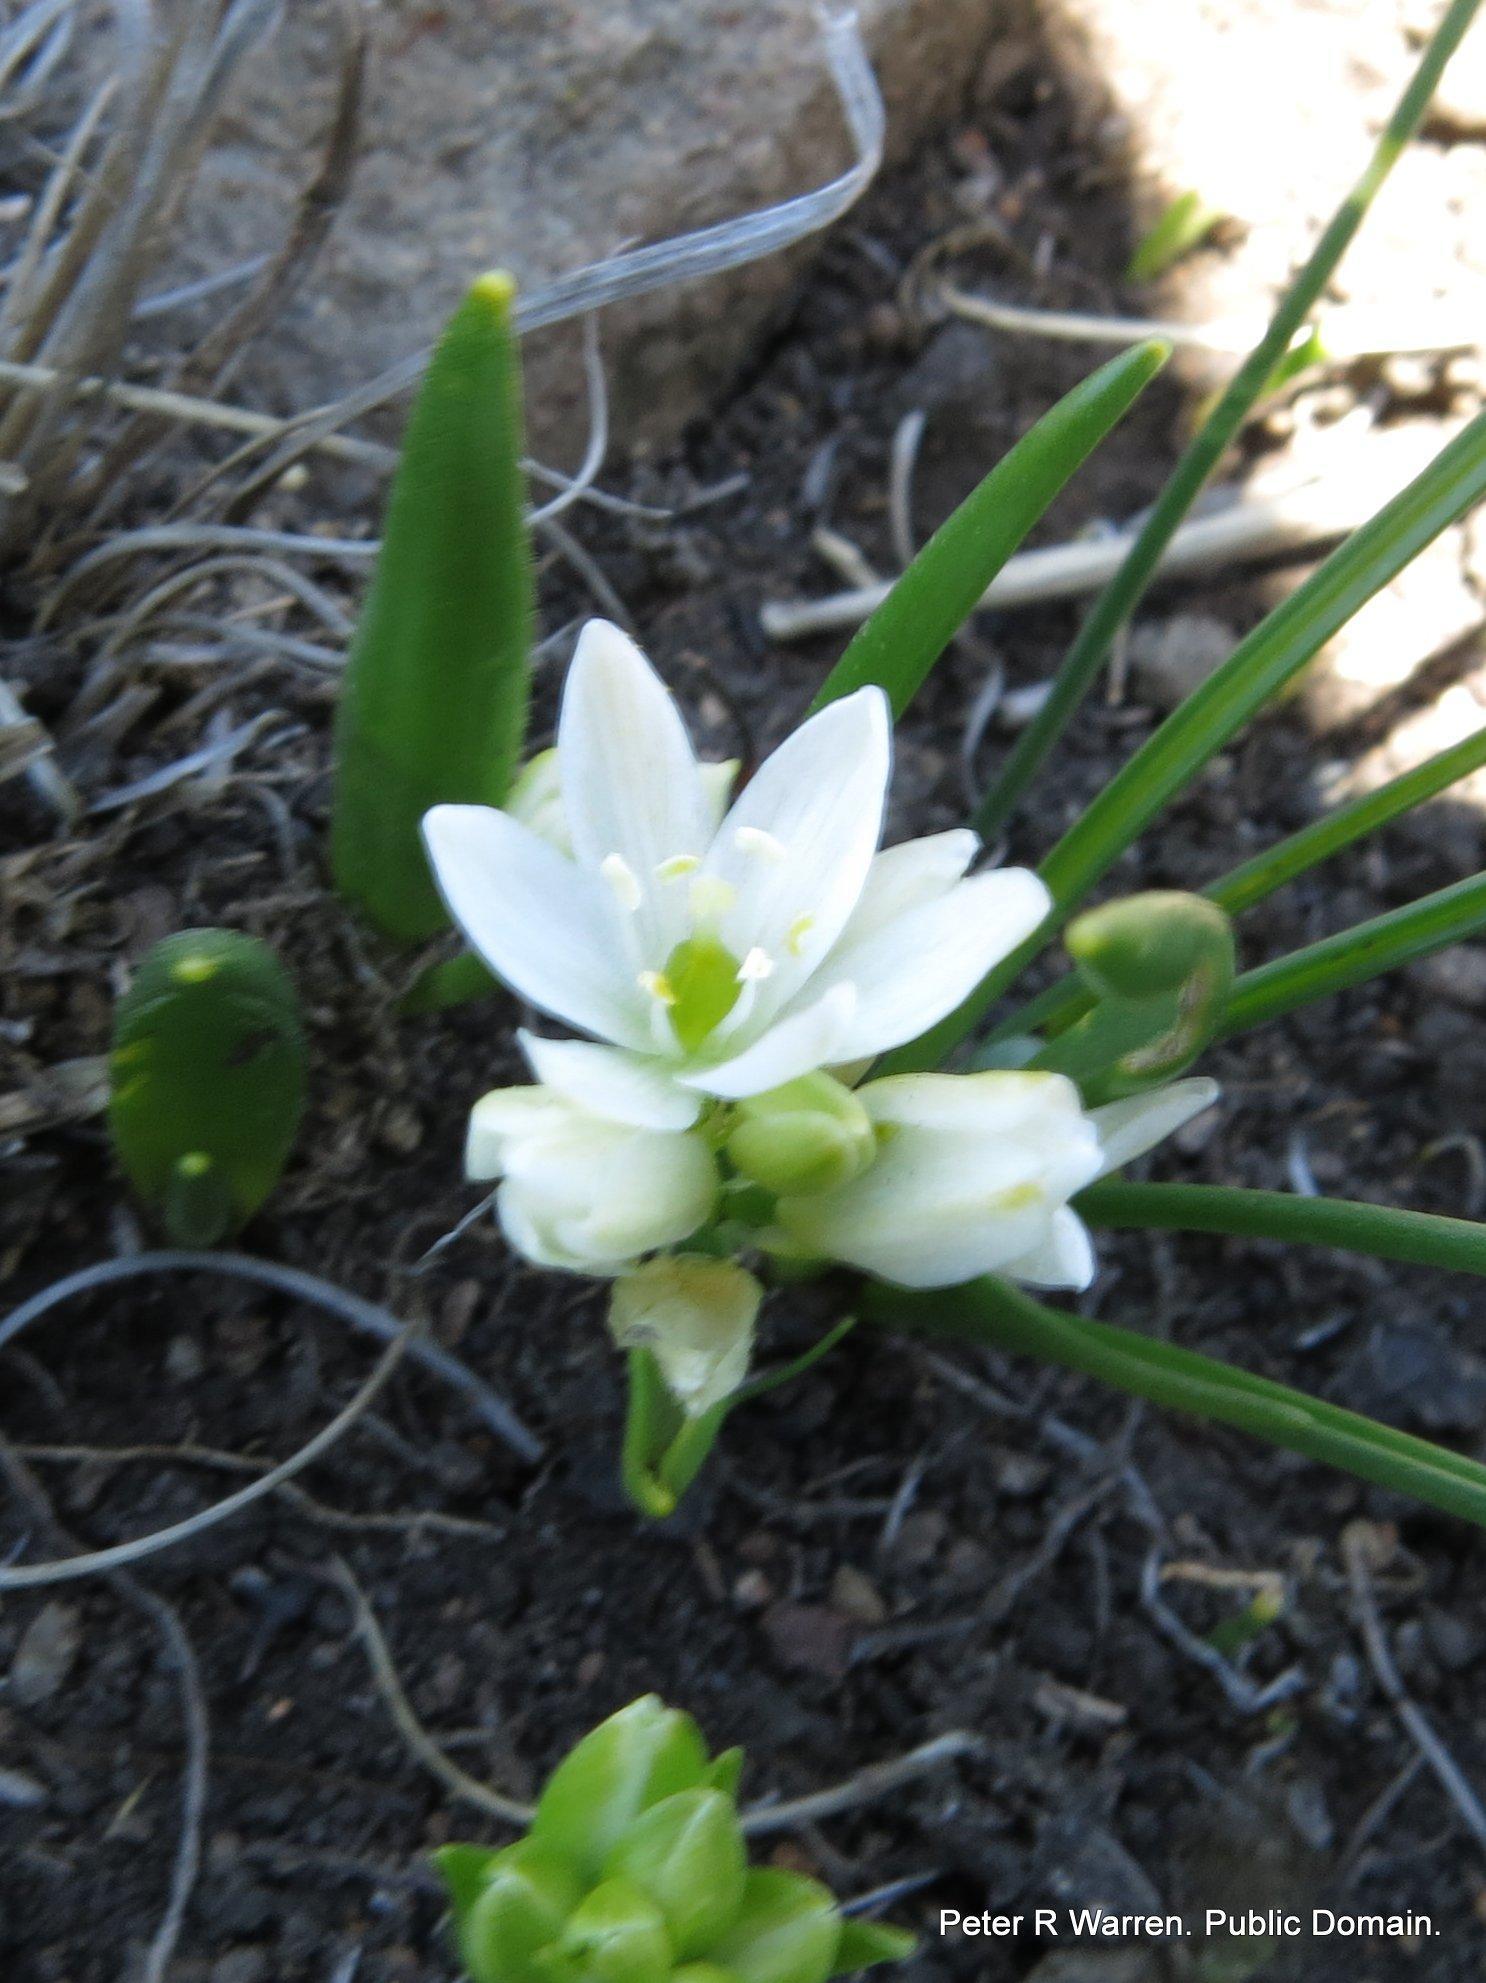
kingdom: Plantae
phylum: Tracheophyta
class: Liliopsida
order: Asparagales
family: Asparagaceae
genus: Ornithogalum
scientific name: Ornithogalum paludosum
